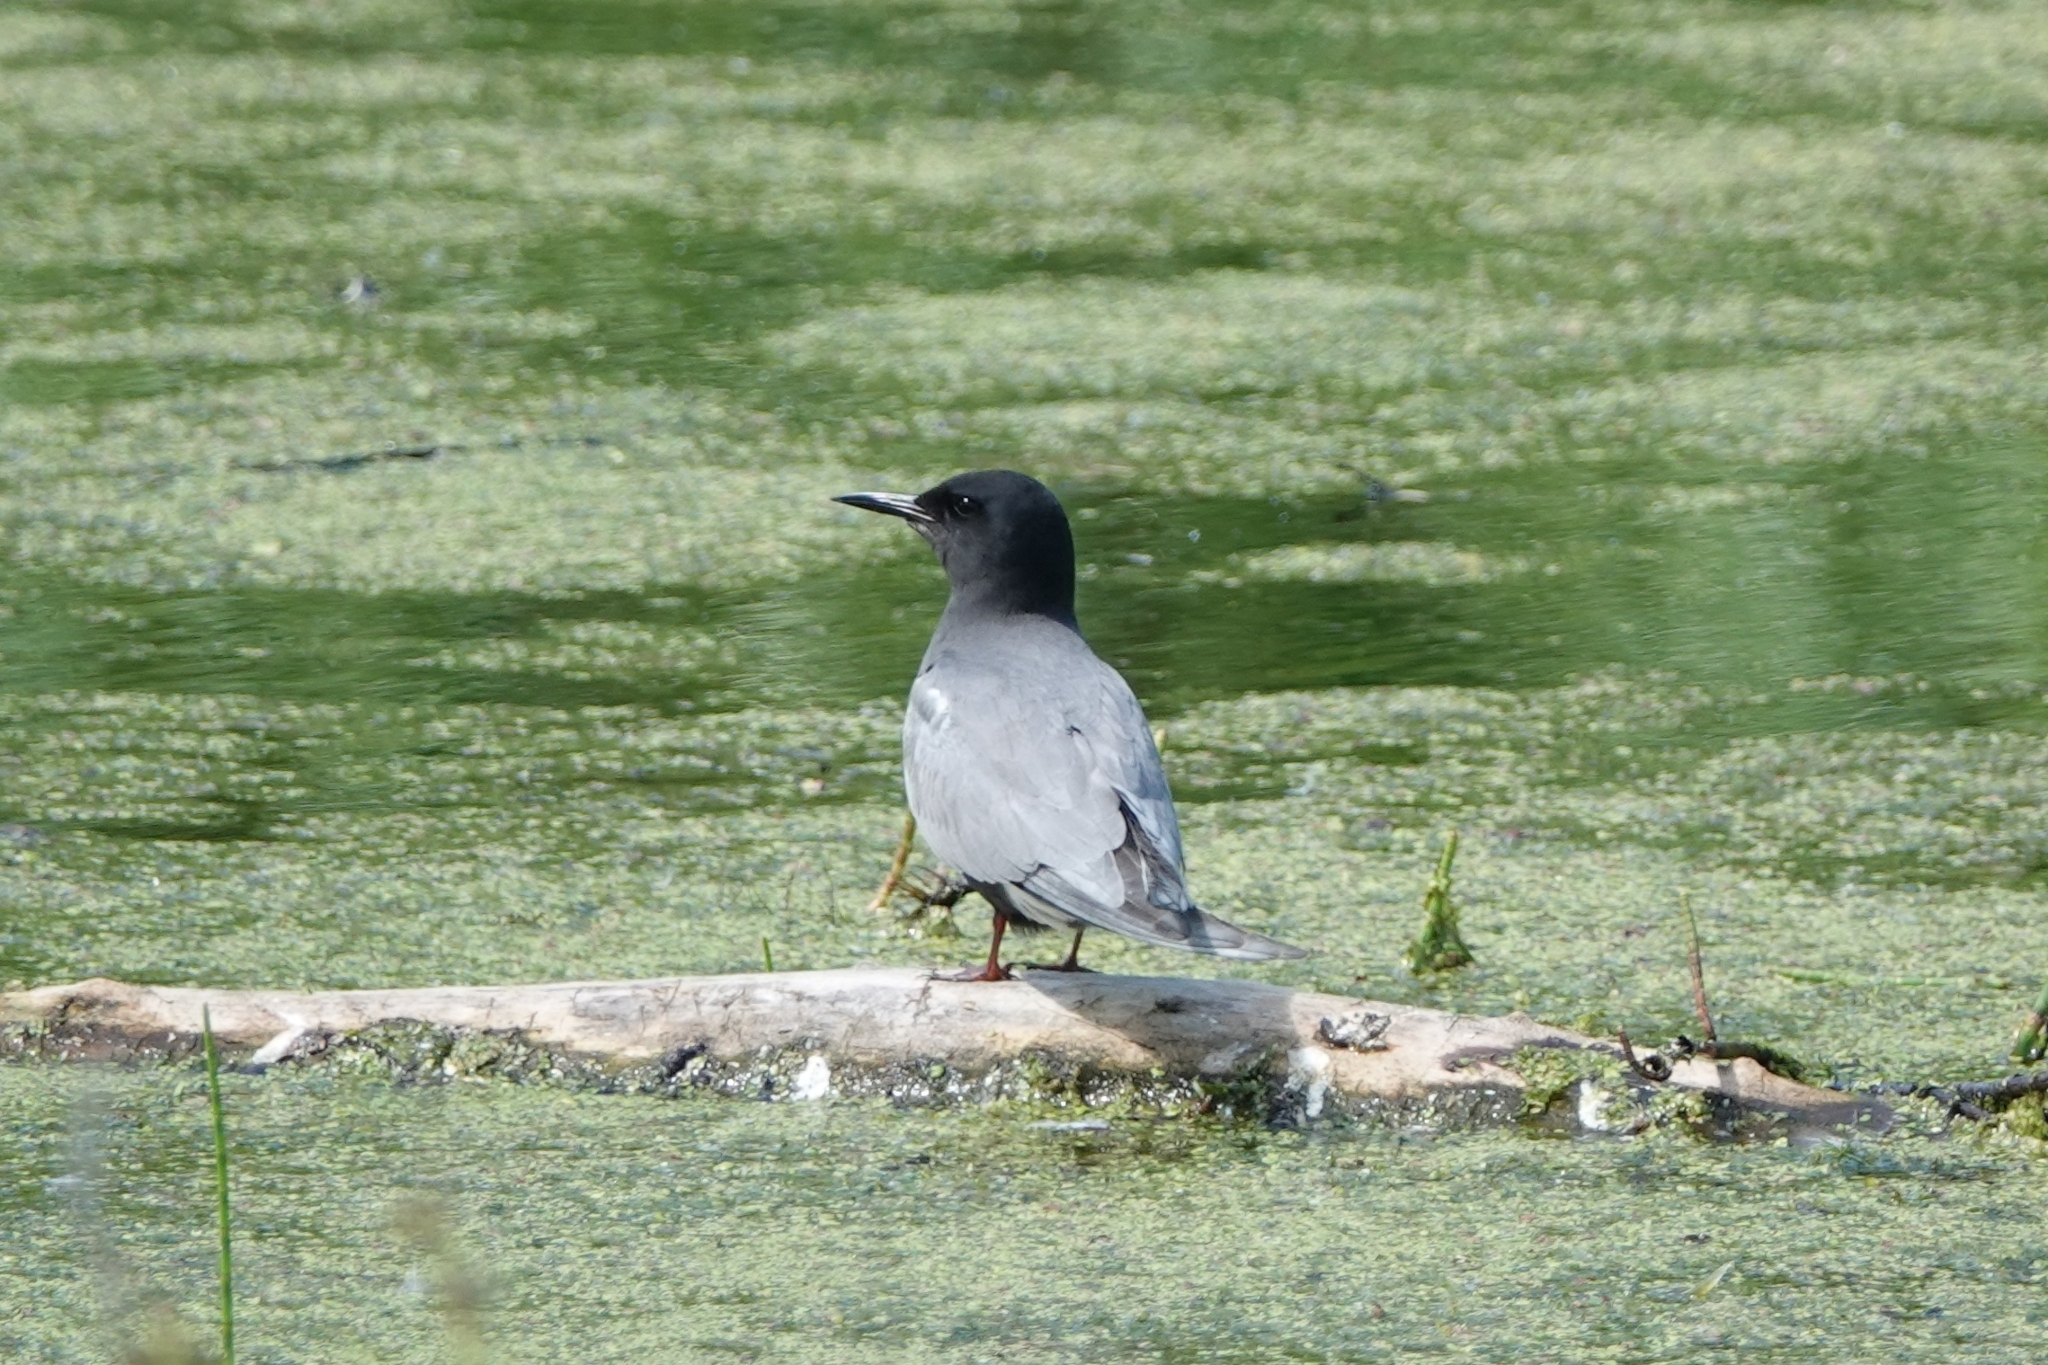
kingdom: Animalia
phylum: Chordata
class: Aves
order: Charadriiformes
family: Laridae
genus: Chlidonias
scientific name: Chlidonias niger
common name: Black tern
